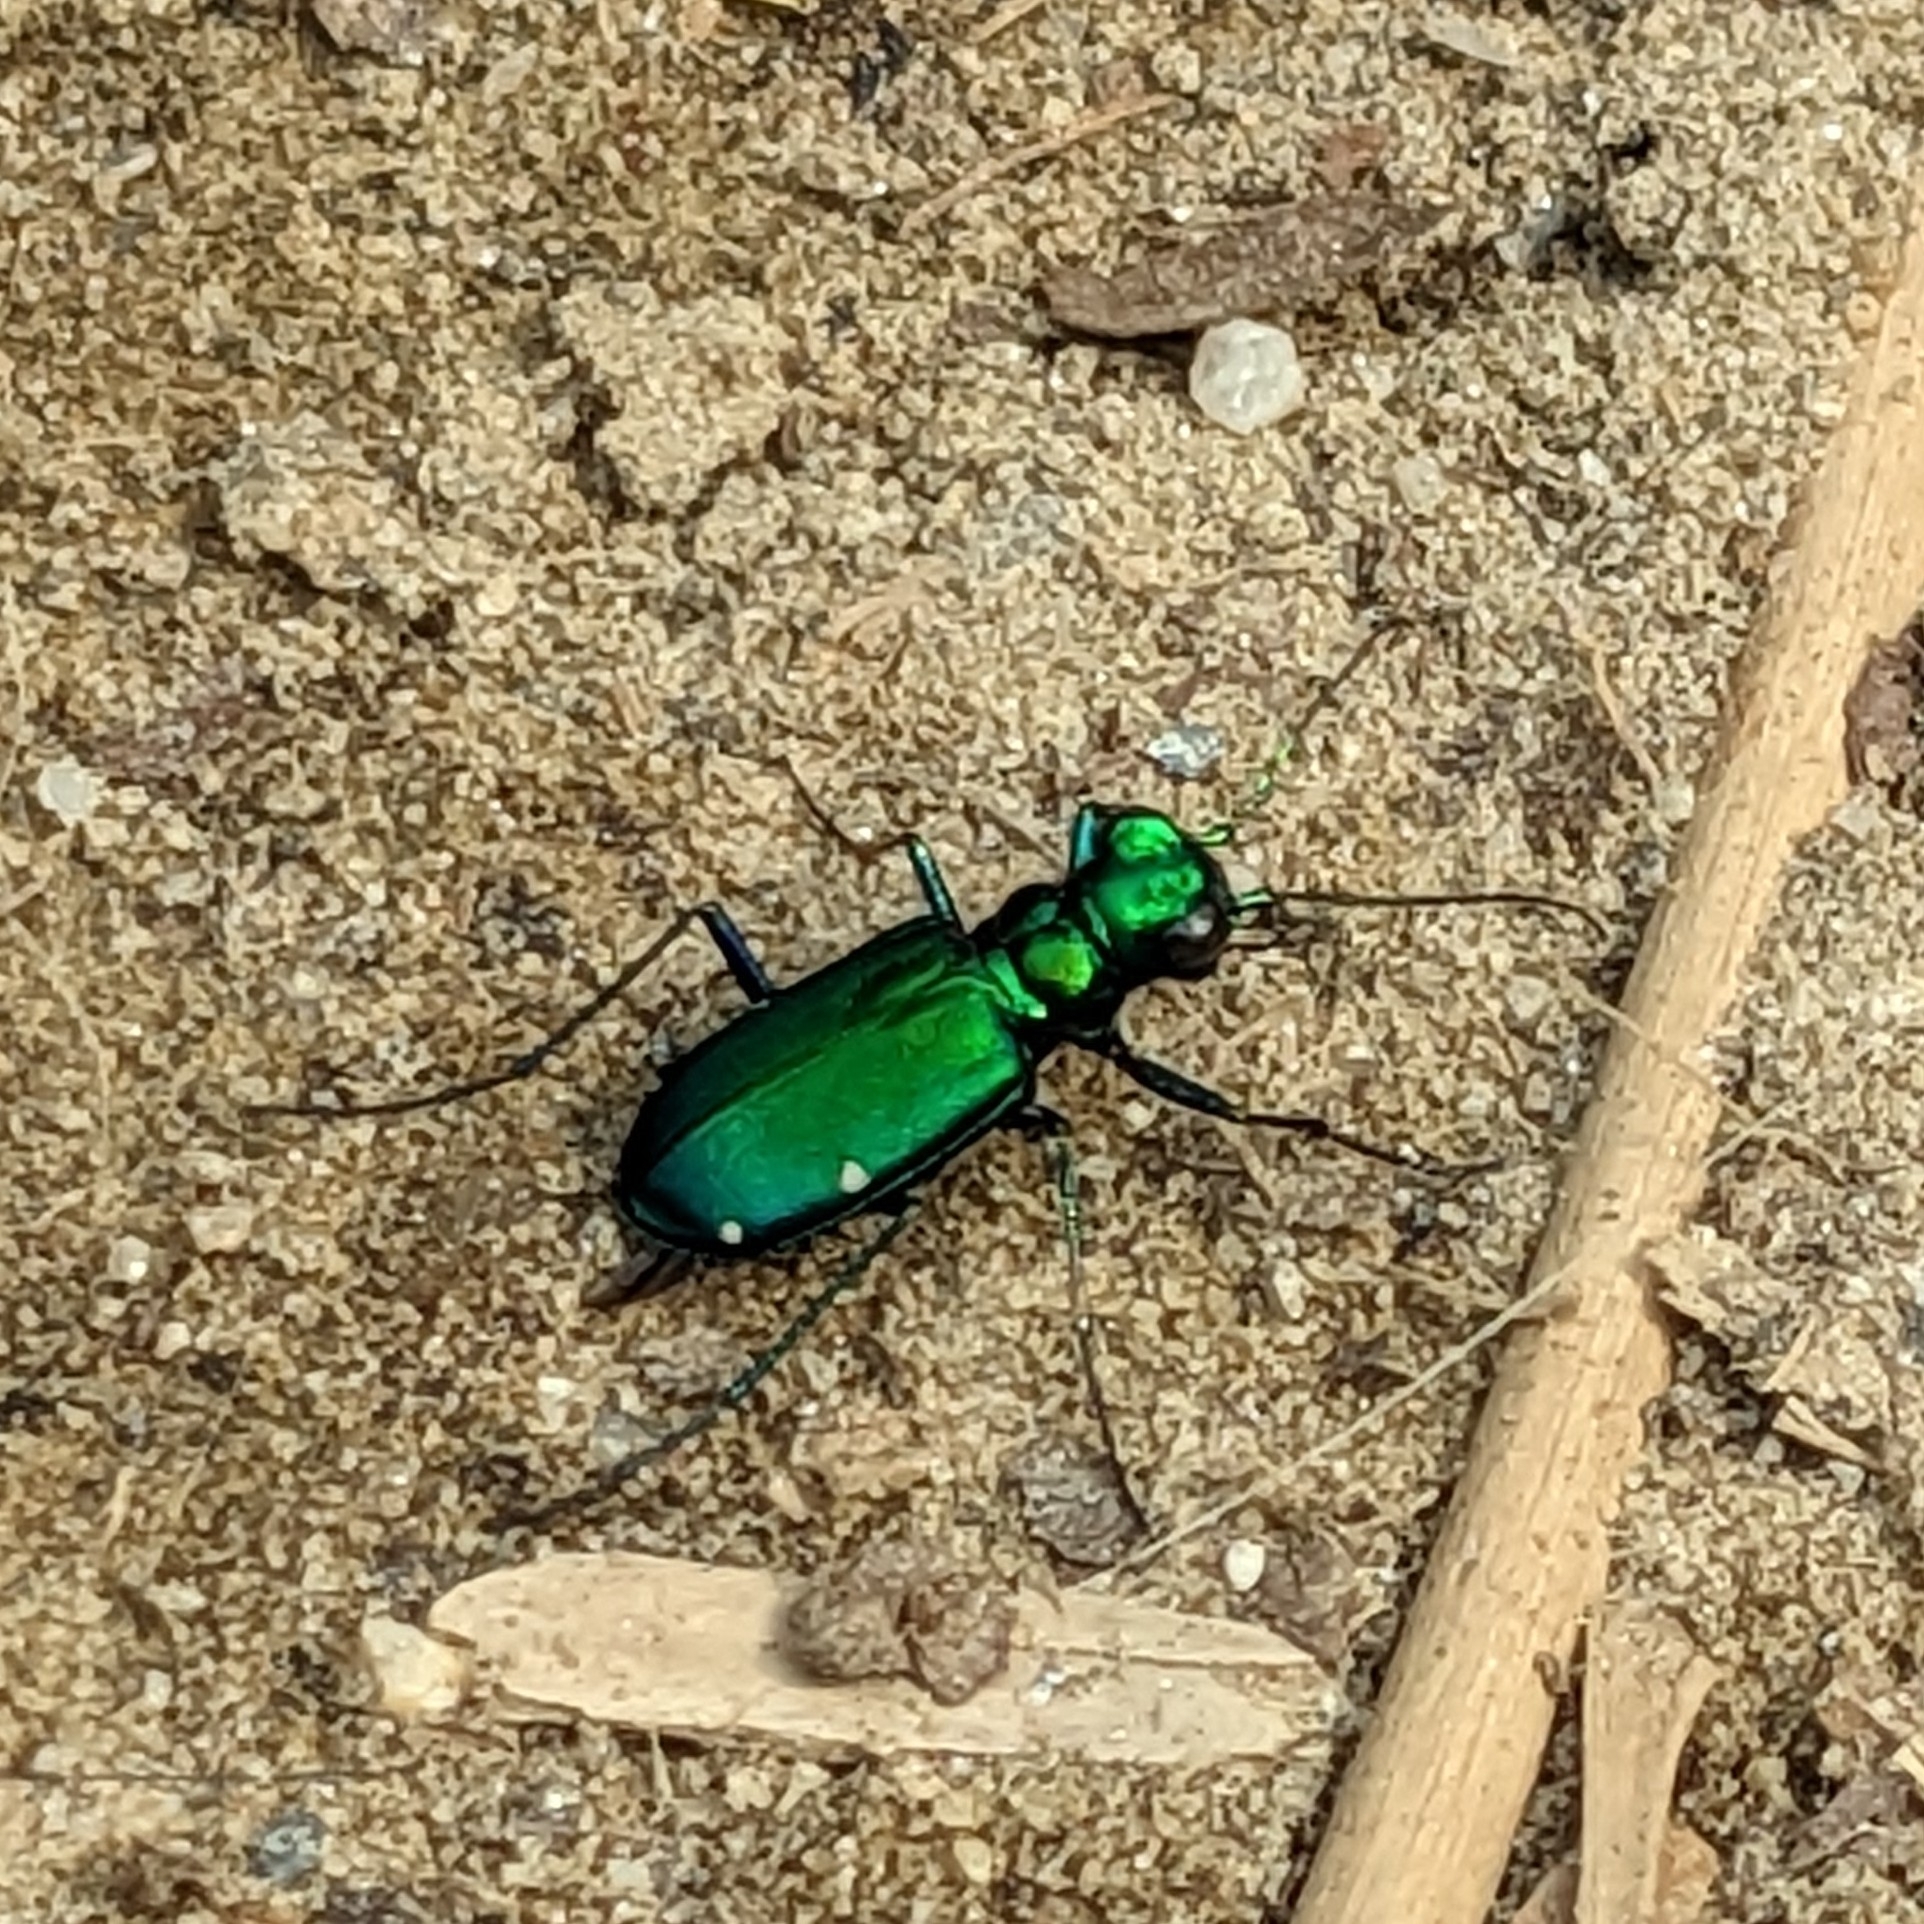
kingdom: Animalia
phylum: Arthropoda
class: Insecta
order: Coleoptera
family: Carabidae
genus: Cicindela
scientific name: Cicindela sexguttata
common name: Six-spotted tiger beetle
